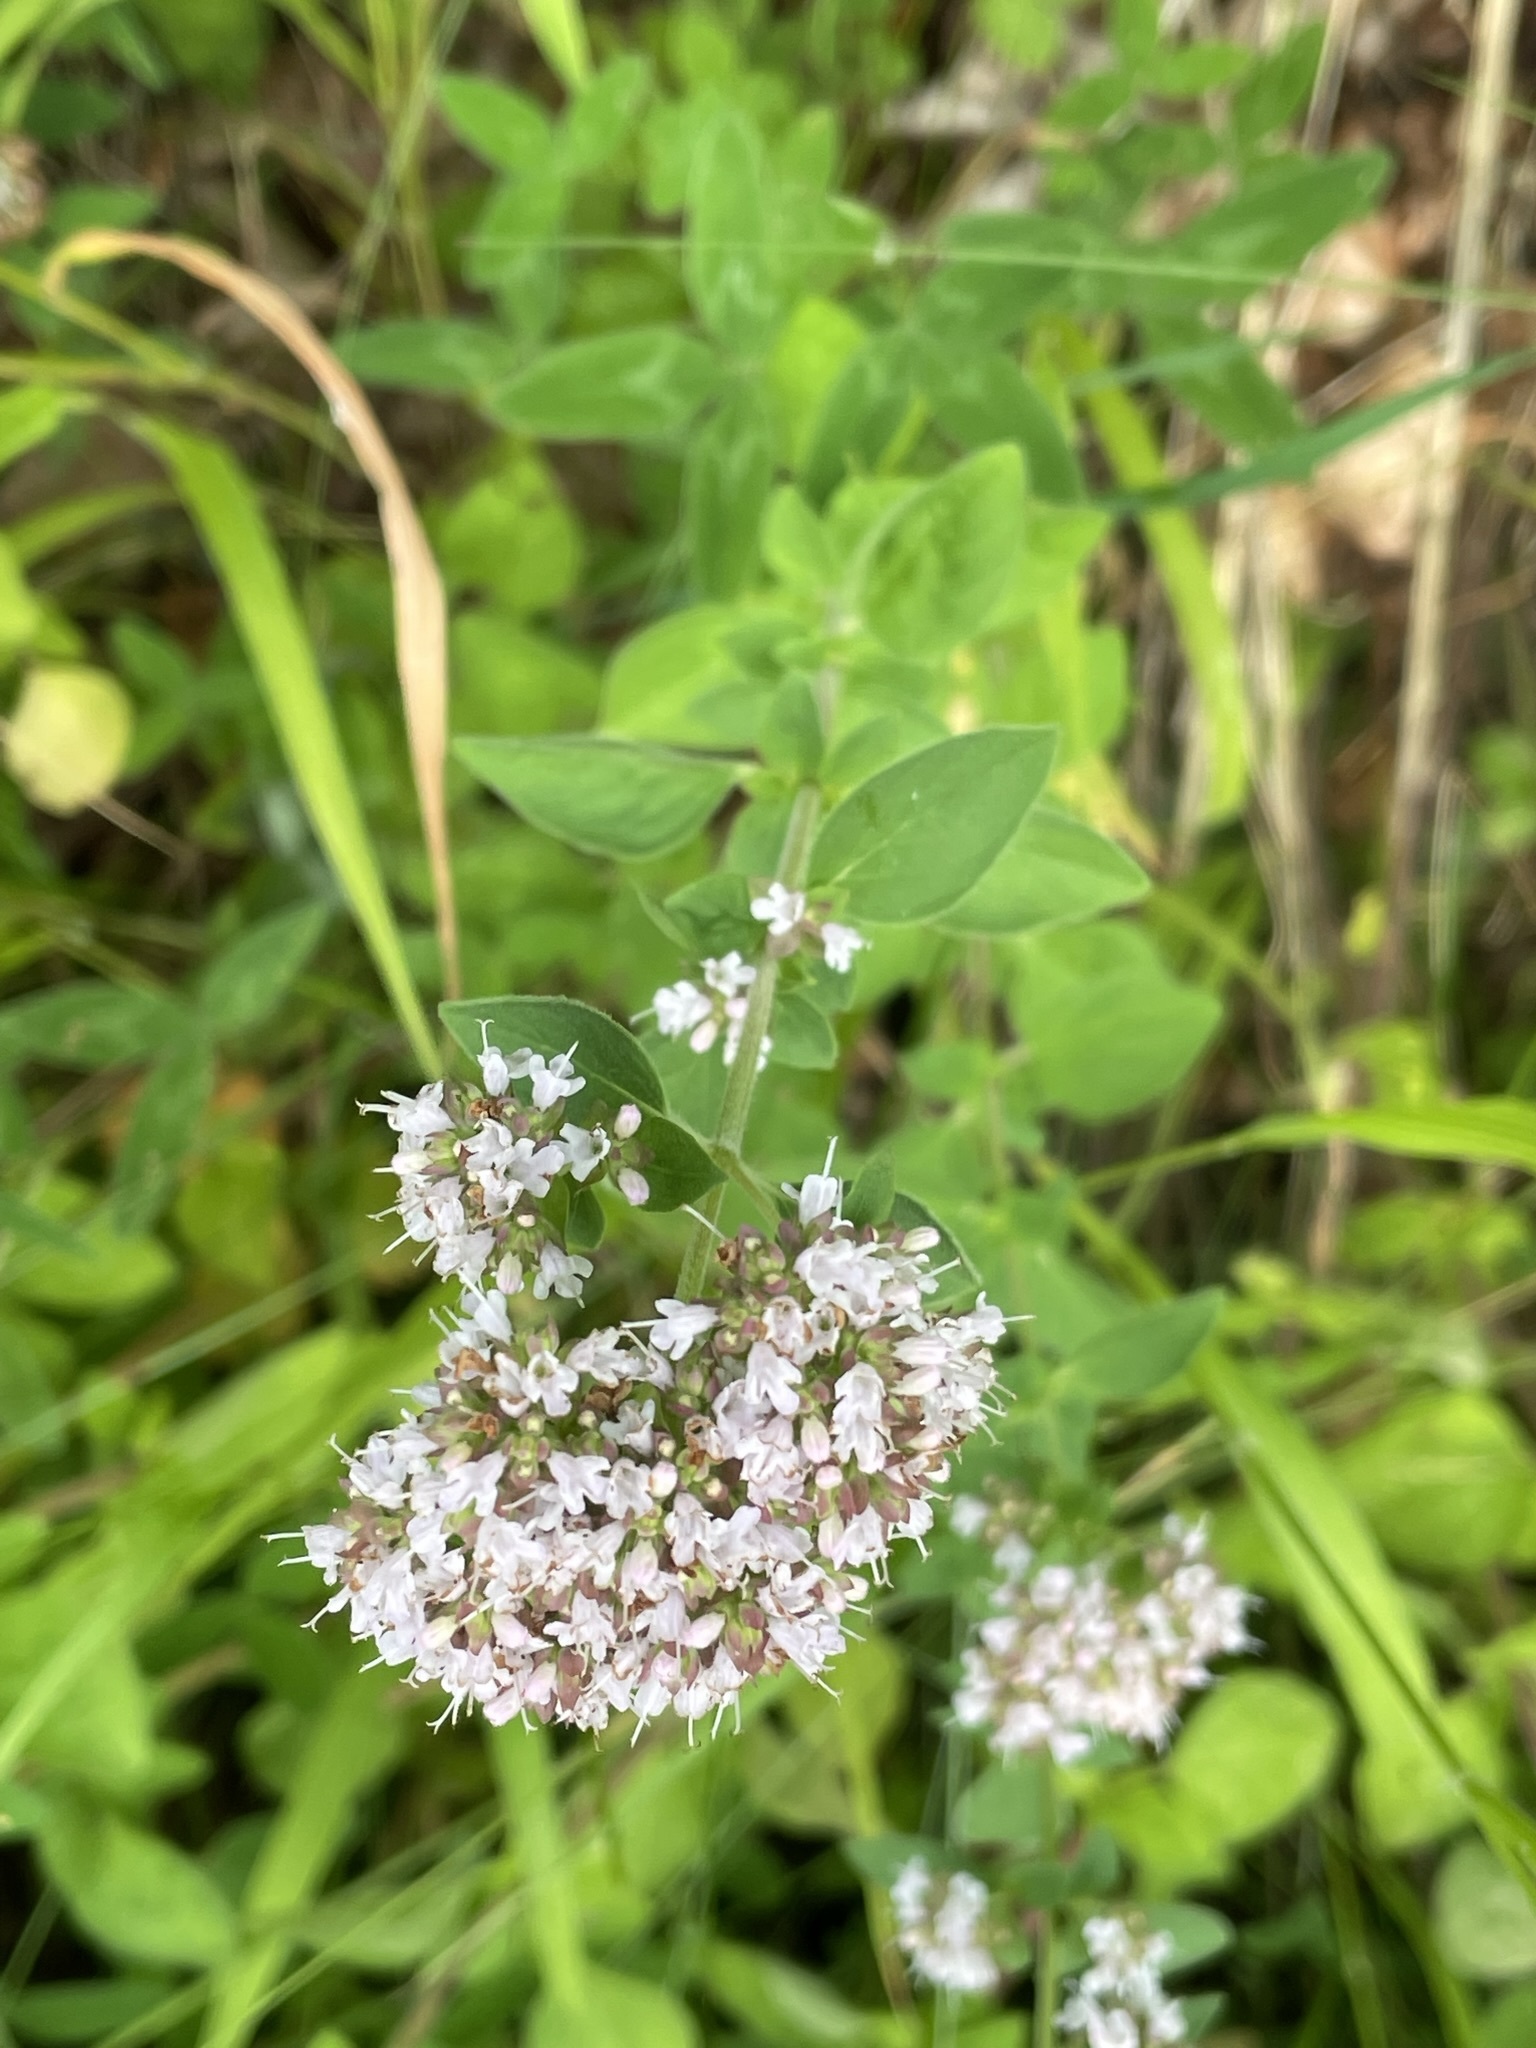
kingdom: Plantae
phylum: Tracheophyta
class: Magnoliopsida
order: Lamiales
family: Lamiaceae
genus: Origanum
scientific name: Origanum vulgare
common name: Wild marjoram
